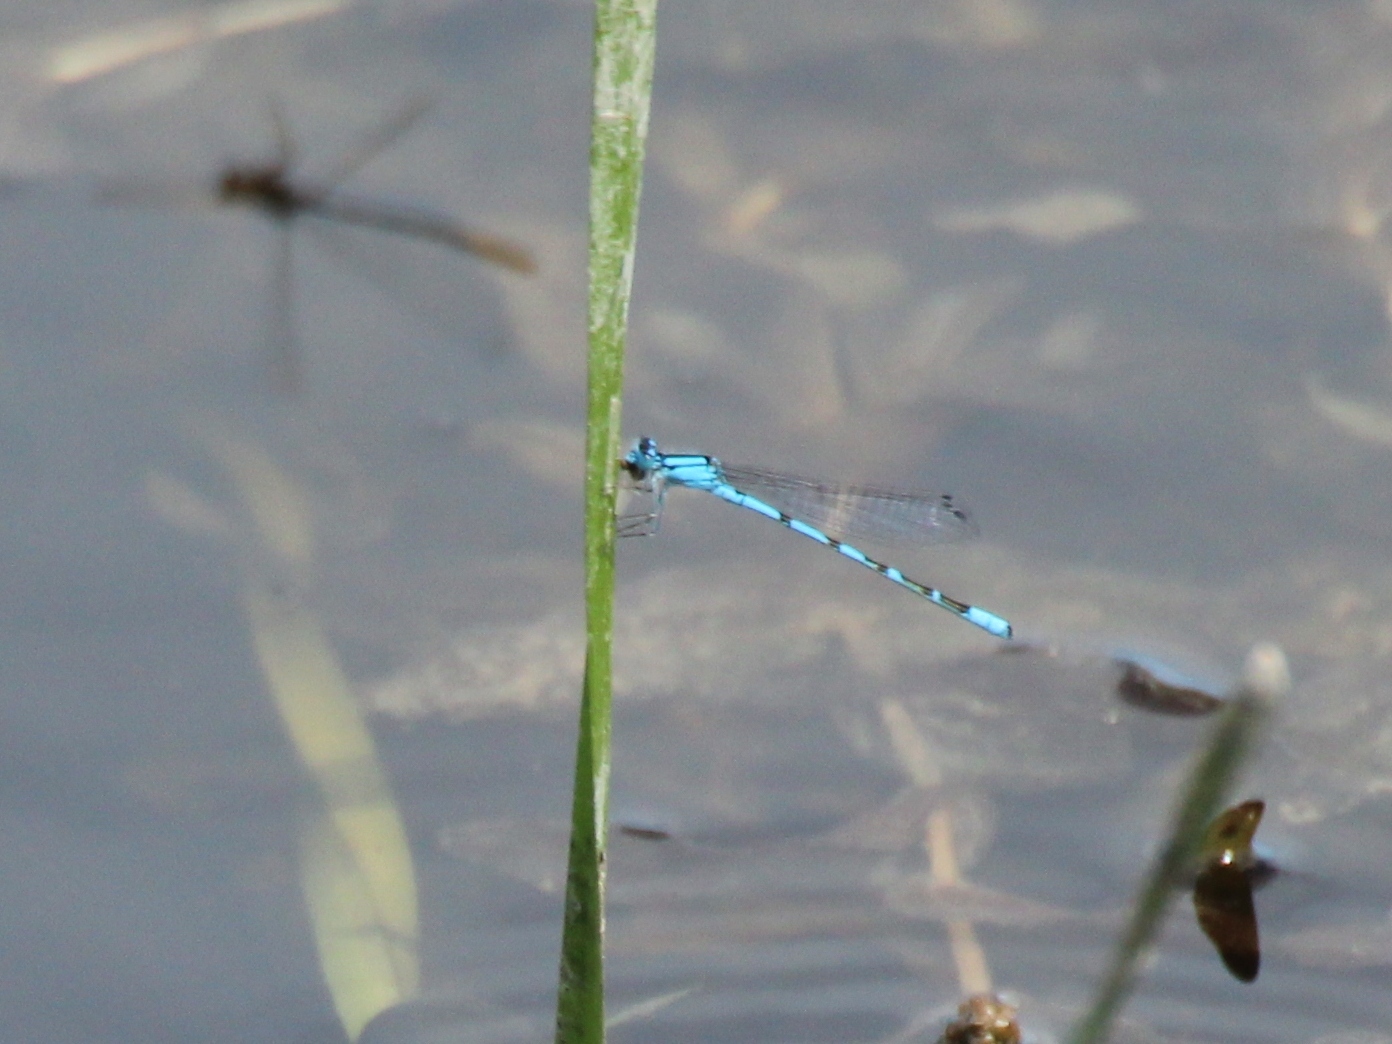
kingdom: Animalia
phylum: Arthropoda
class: Insecta
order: Odonata
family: Coenagrionidae
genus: Enallagma
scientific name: Enallagma cyathigerum
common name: Common blue damselfly
